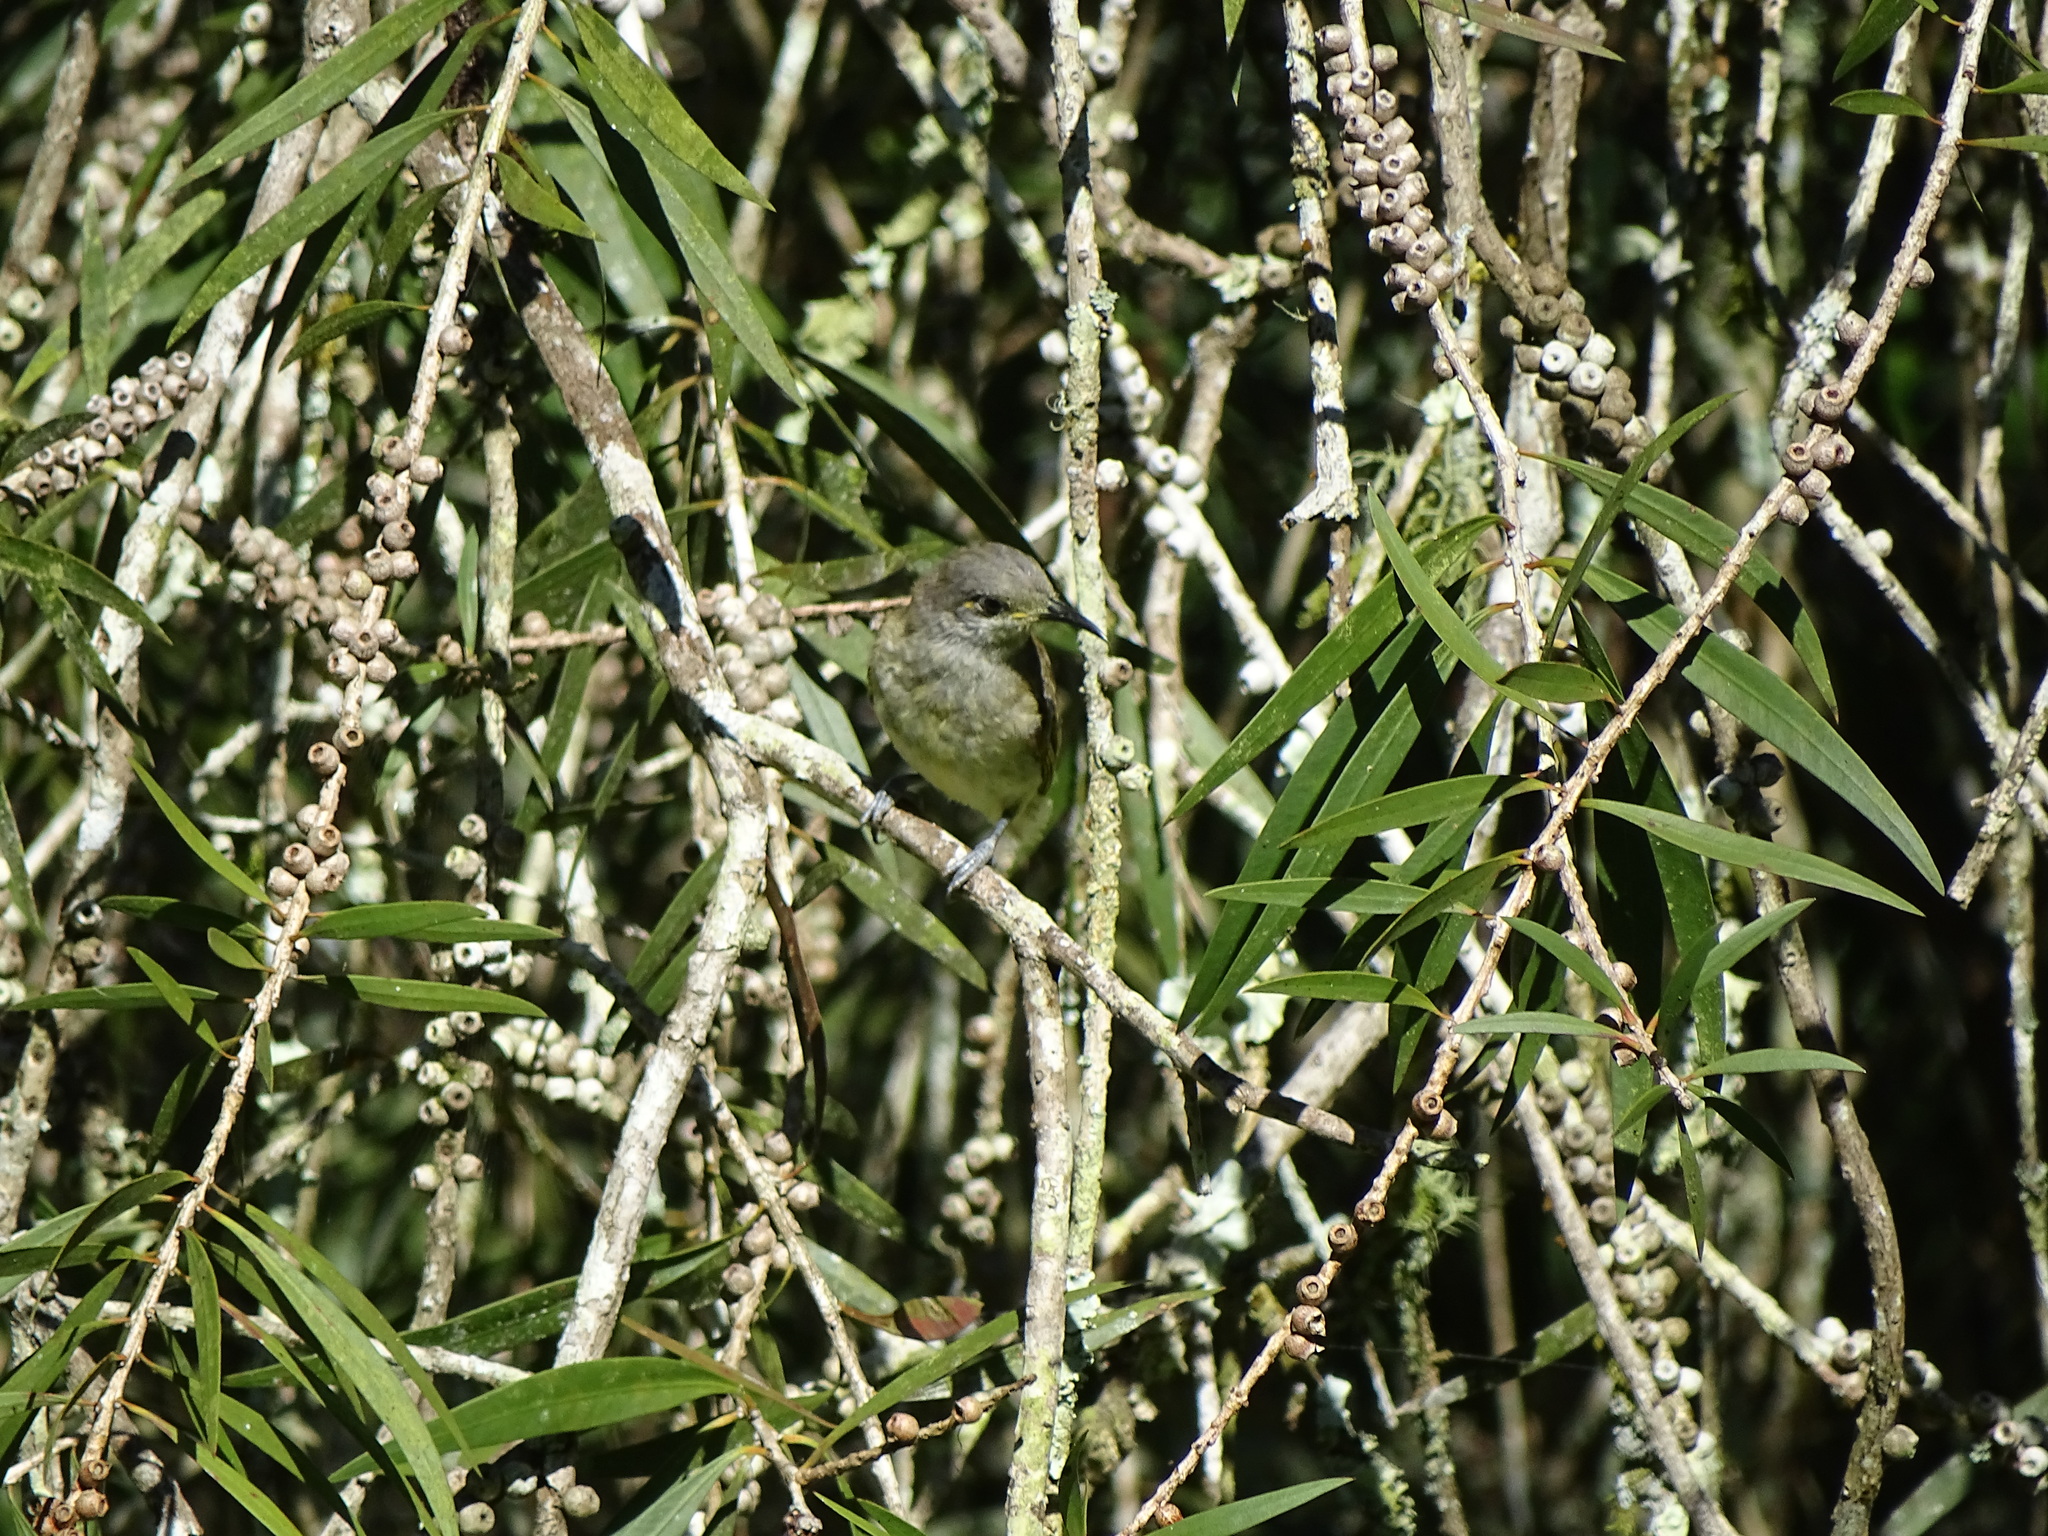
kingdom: Animalia
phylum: Chordata
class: Aves
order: Passeriformes
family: Meliphagidae
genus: Lichmera
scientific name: Lichmera indistincta
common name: Brown honeyeater
